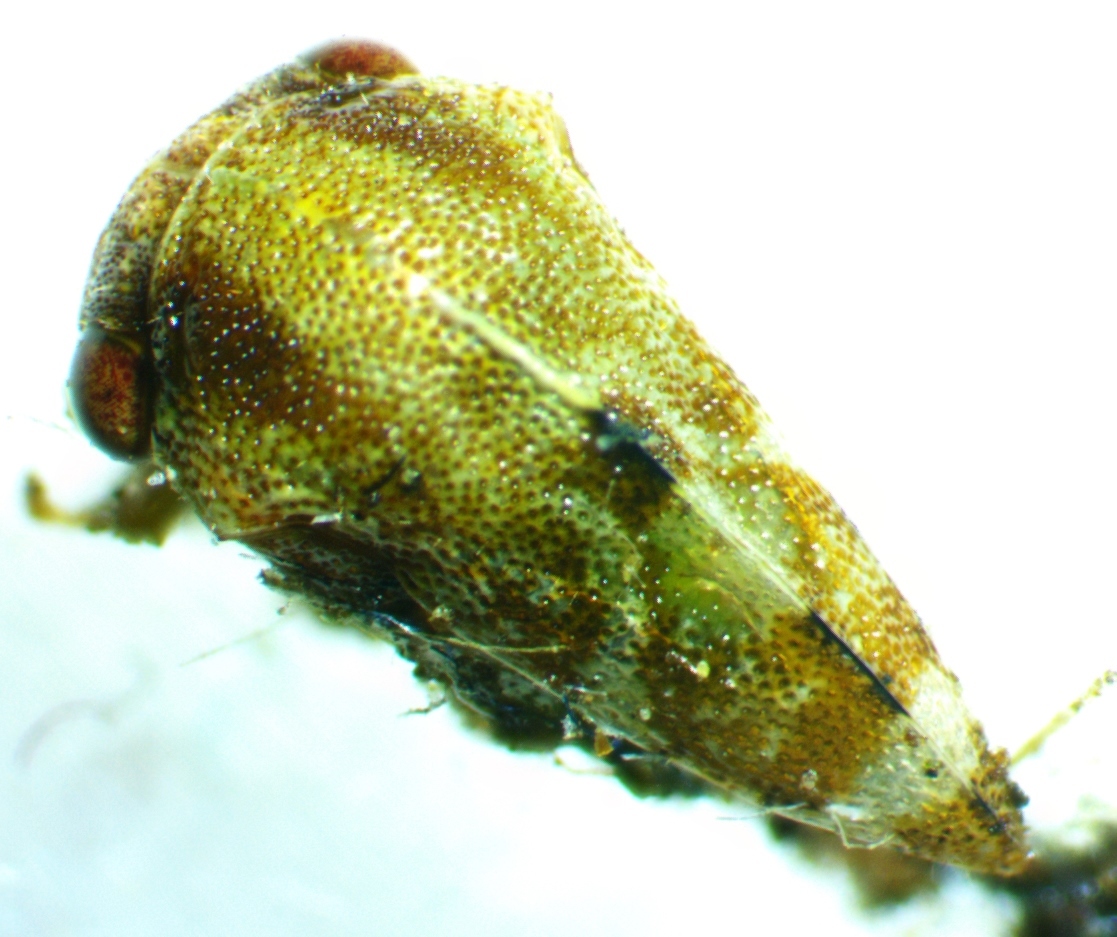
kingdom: Animalia
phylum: Arthropoda
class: Insecta
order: Hemiptera
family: Membracidae
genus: Cyrtolobus
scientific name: Cyrtolobus togatus
